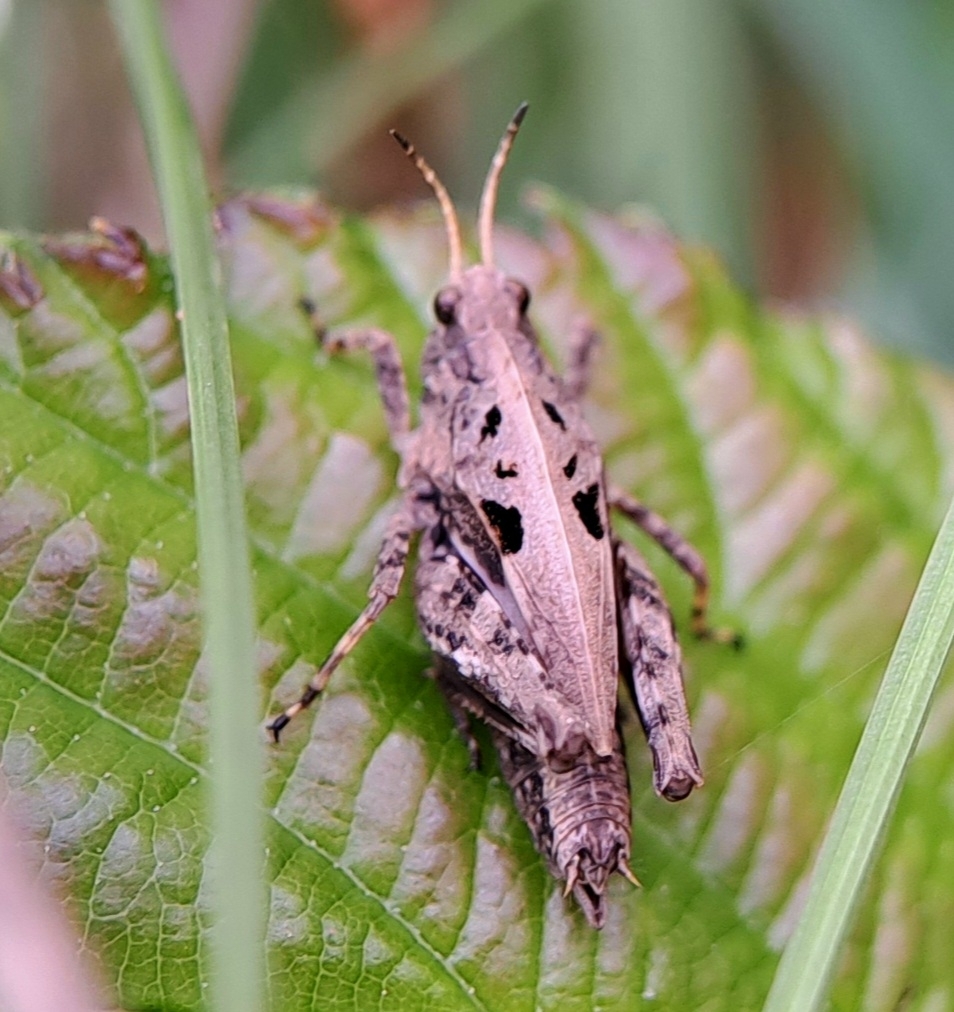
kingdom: Animalia
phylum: Arthropoda
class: Insecta
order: Orthoptera
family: Tetrigidae
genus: Tetrix
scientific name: Tetrix undulata
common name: Common groundhopper
